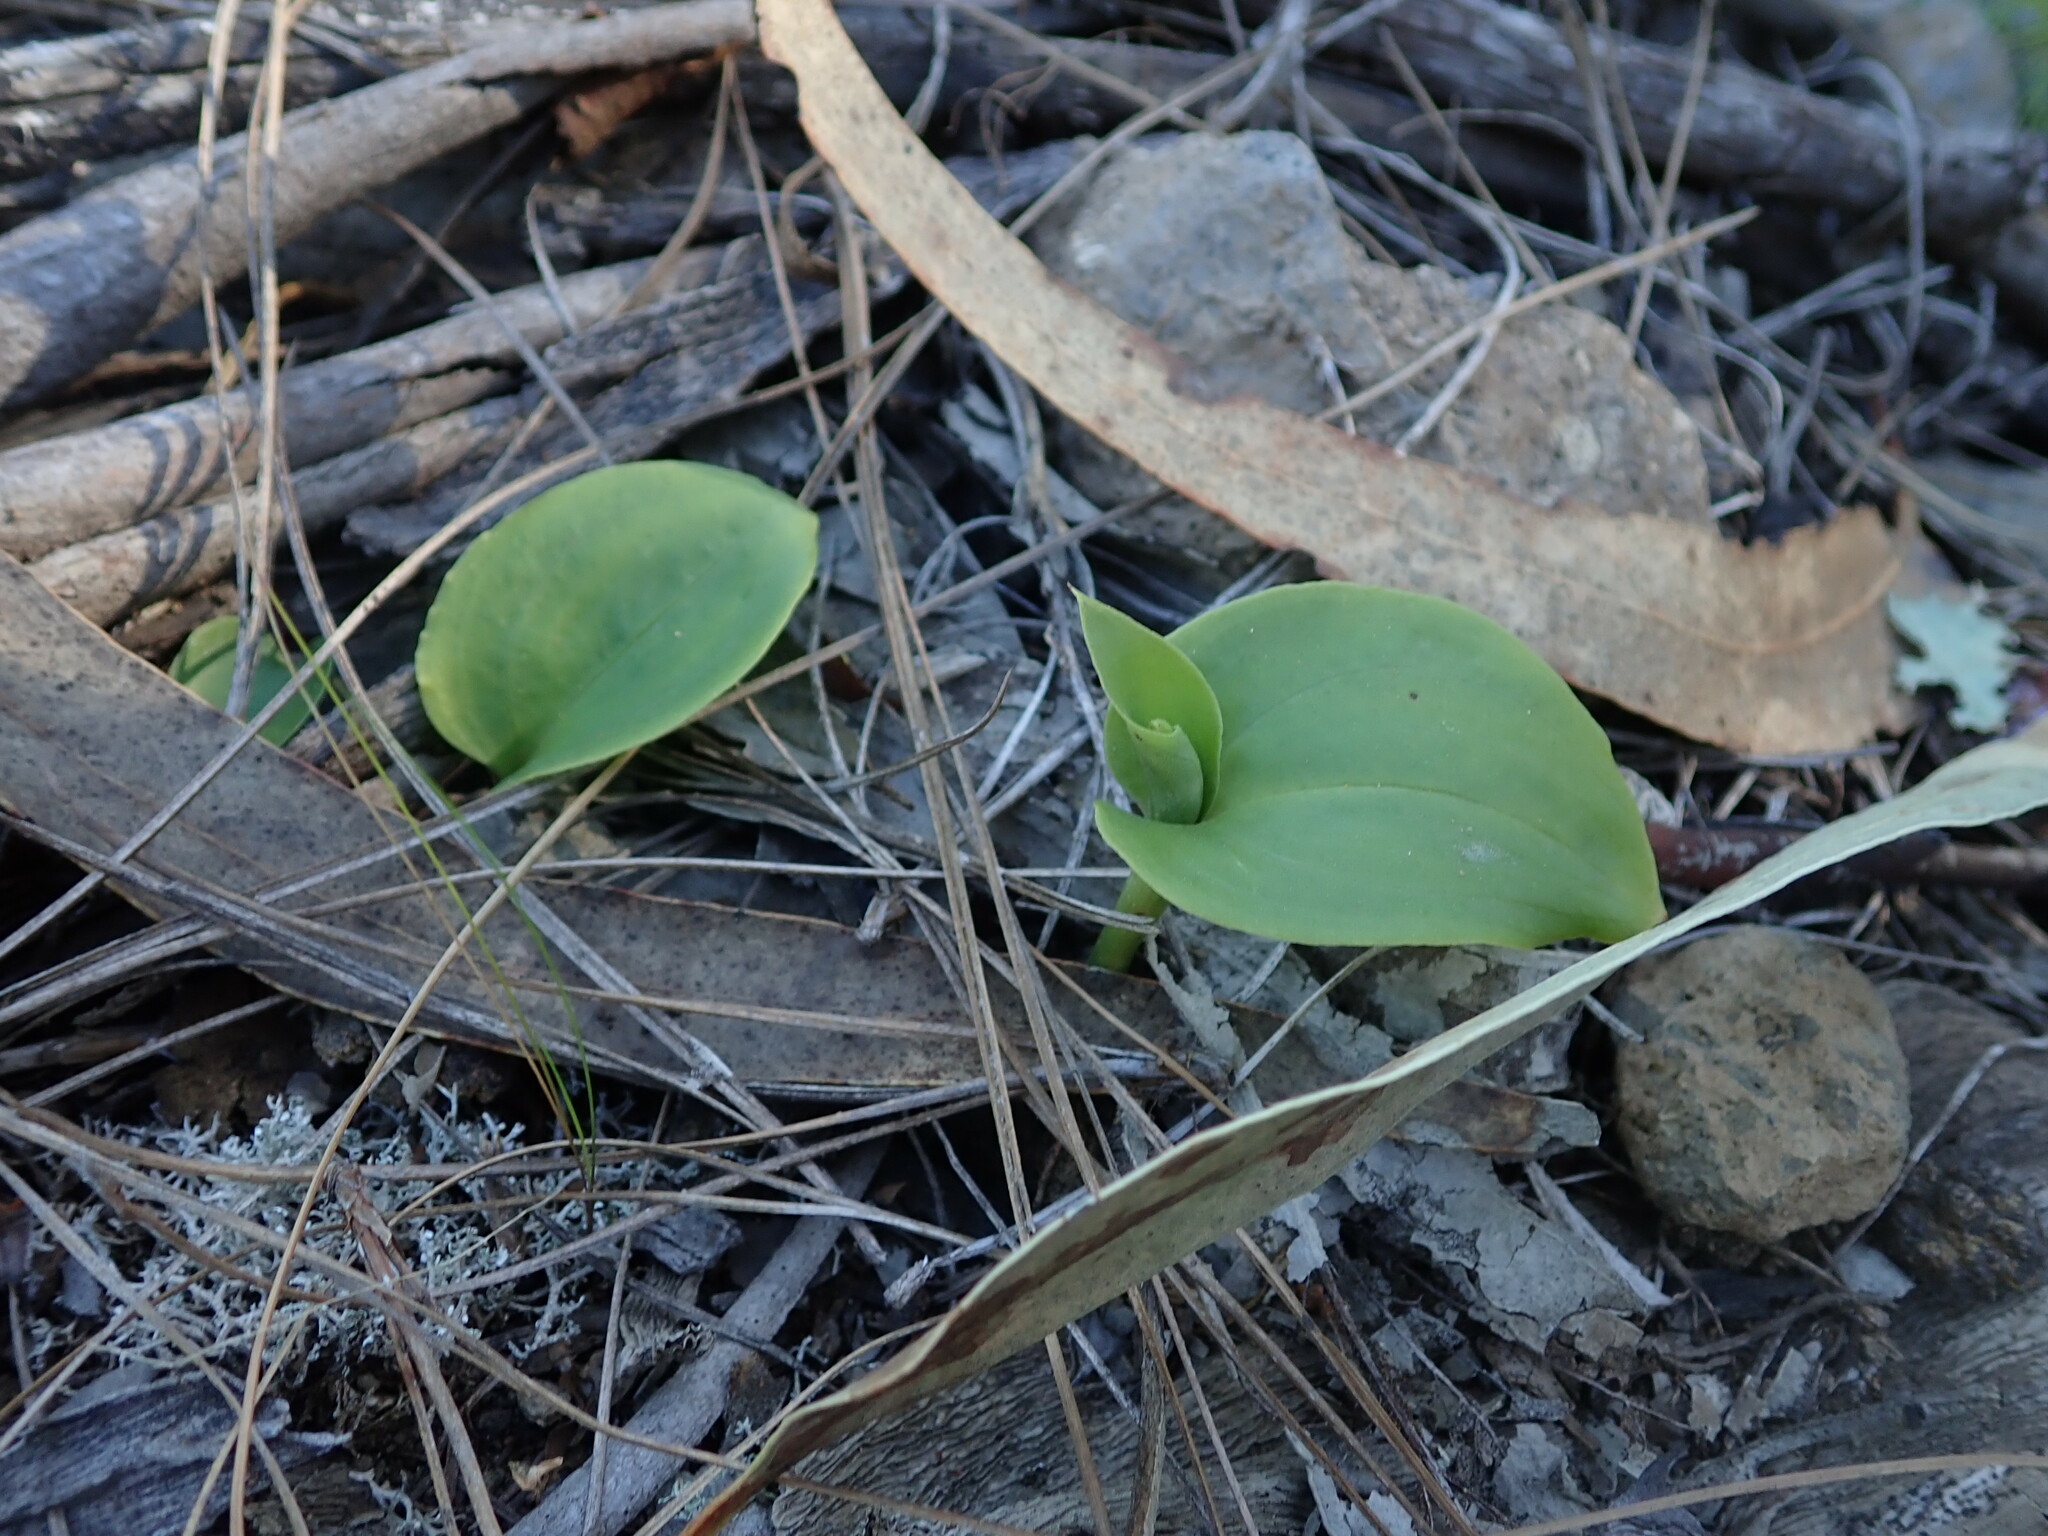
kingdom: Plantae
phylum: Tracheophyta
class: Liliopsida
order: Asparagales
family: Orchidaceae
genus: Gennaria
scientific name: Gennaria diphylla
